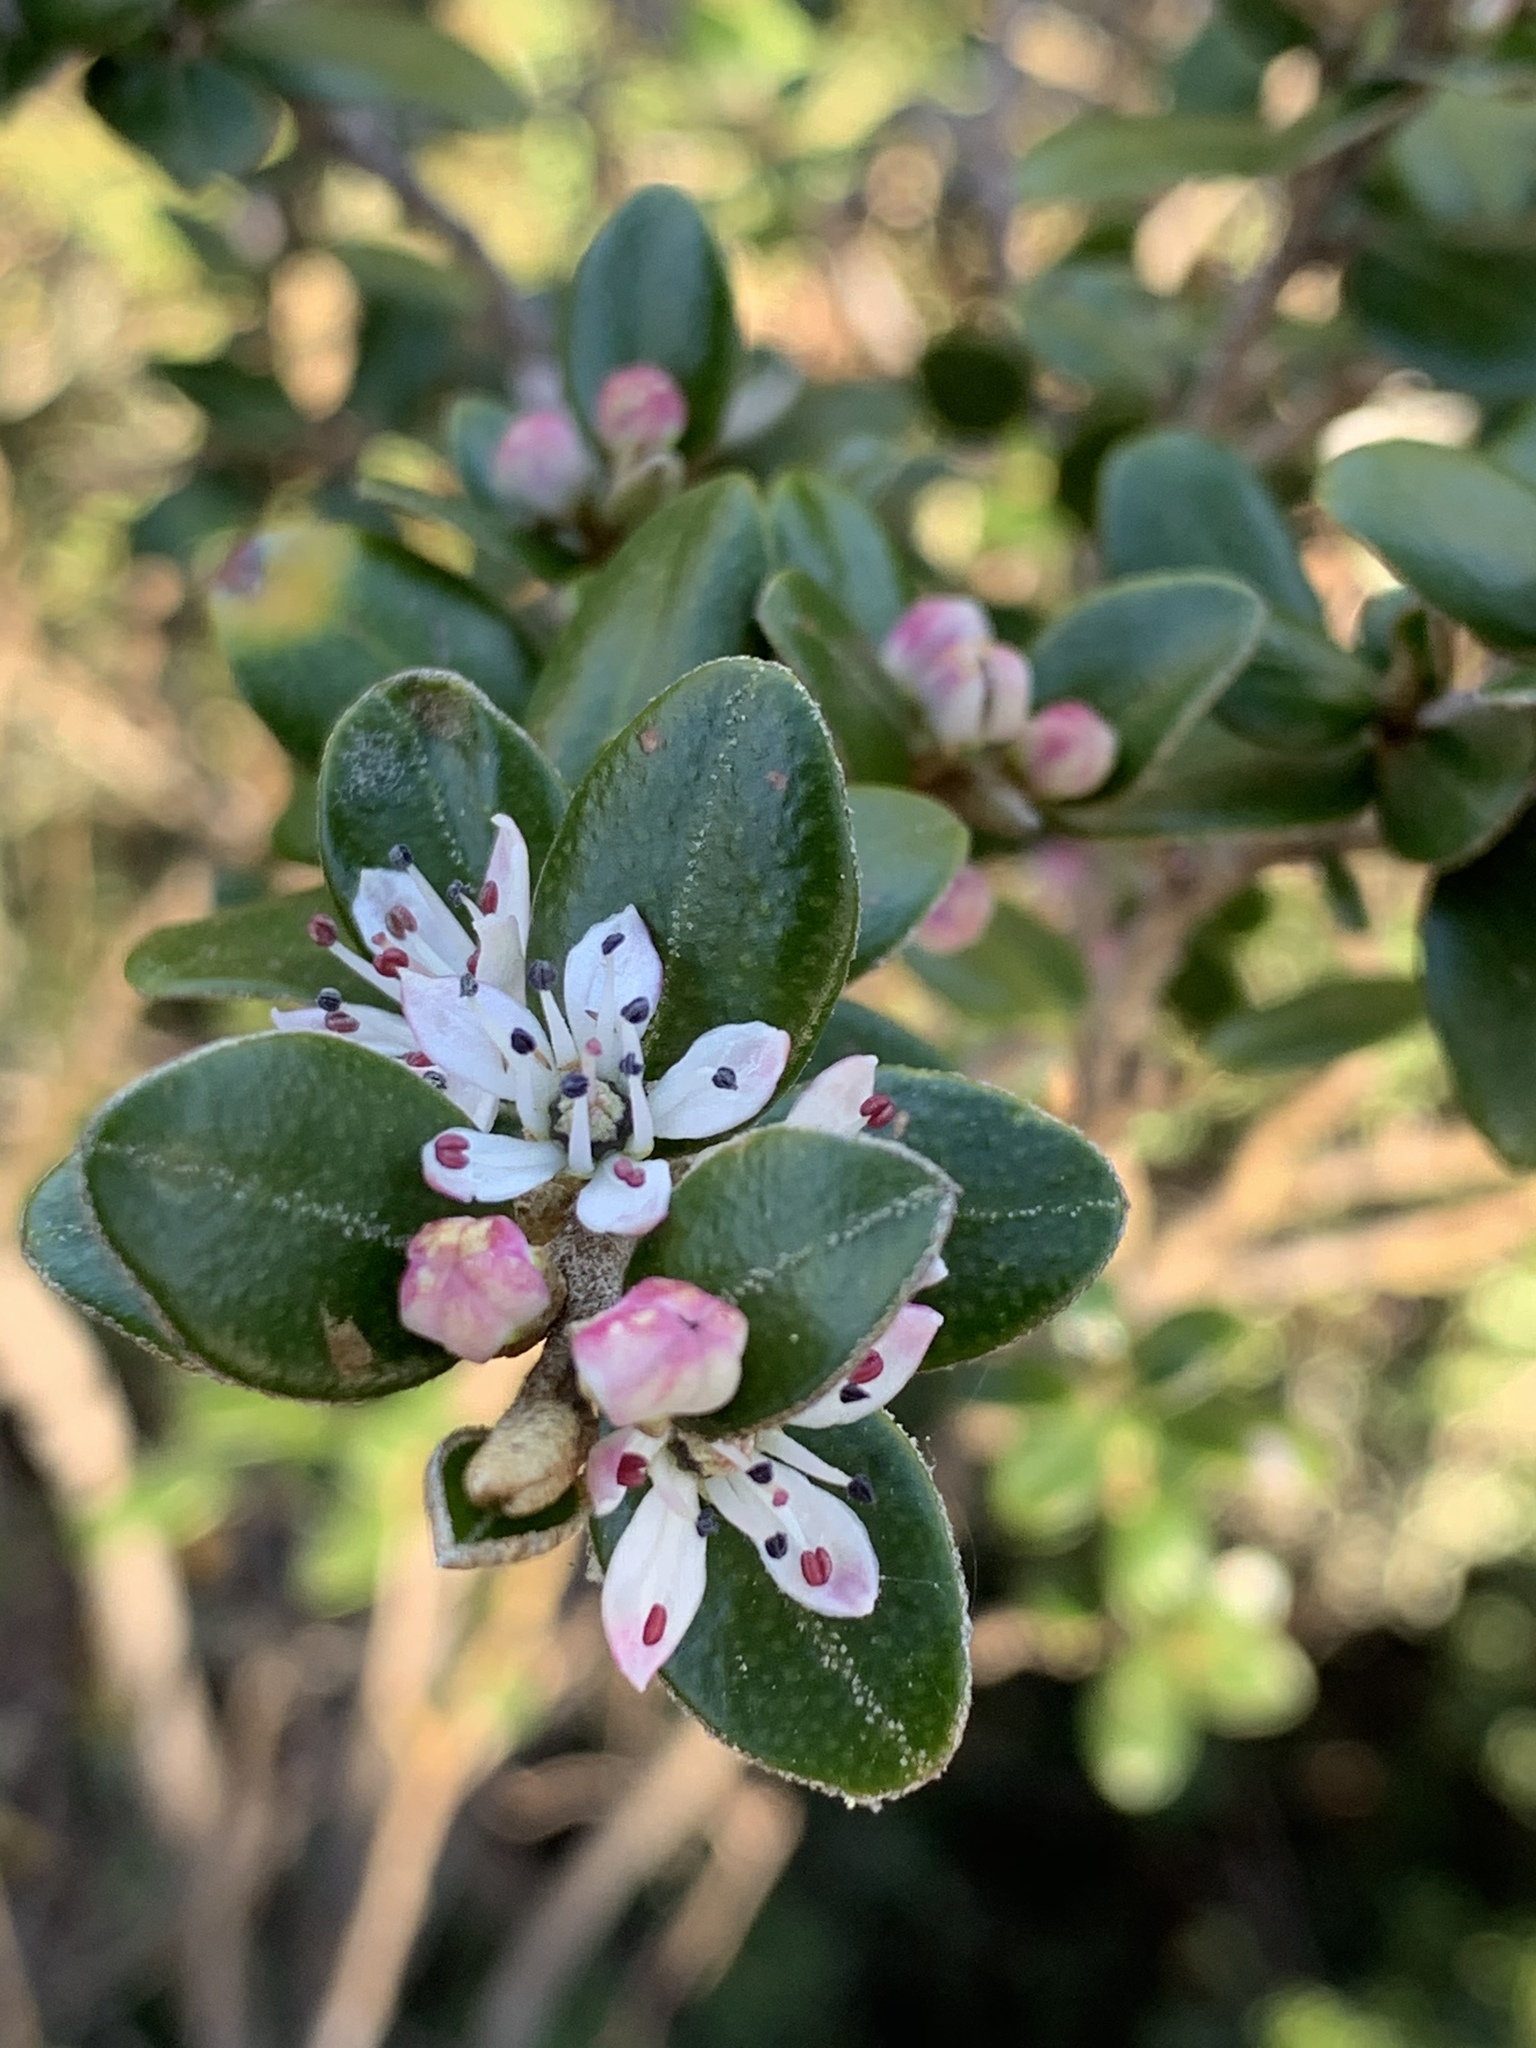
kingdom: Plantae
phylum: Tracheophyta
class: Magnoliopsida
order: Sapindales
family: Rutaceae
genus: Nematolepis
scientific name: Nematolepis ovatifolia
